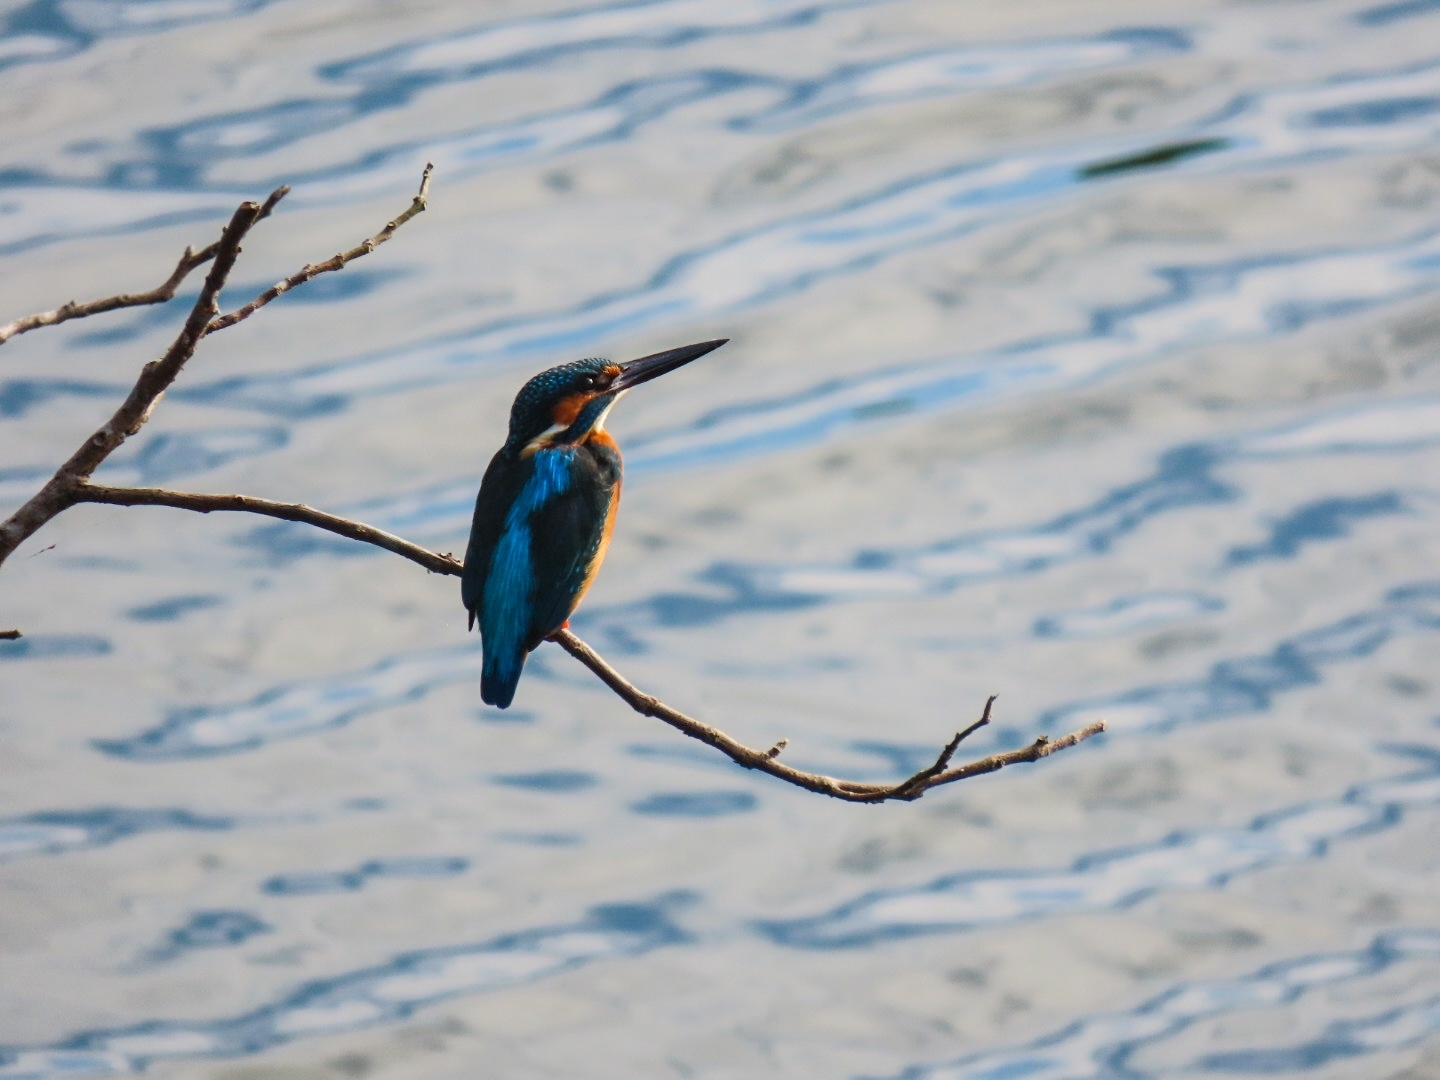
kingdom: Animalia
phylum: Chordata
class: Aves
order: Coraciiformes
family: Alcedinidae
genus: Alcedo
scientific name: Alcedo atthis
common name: Common kingfisher
